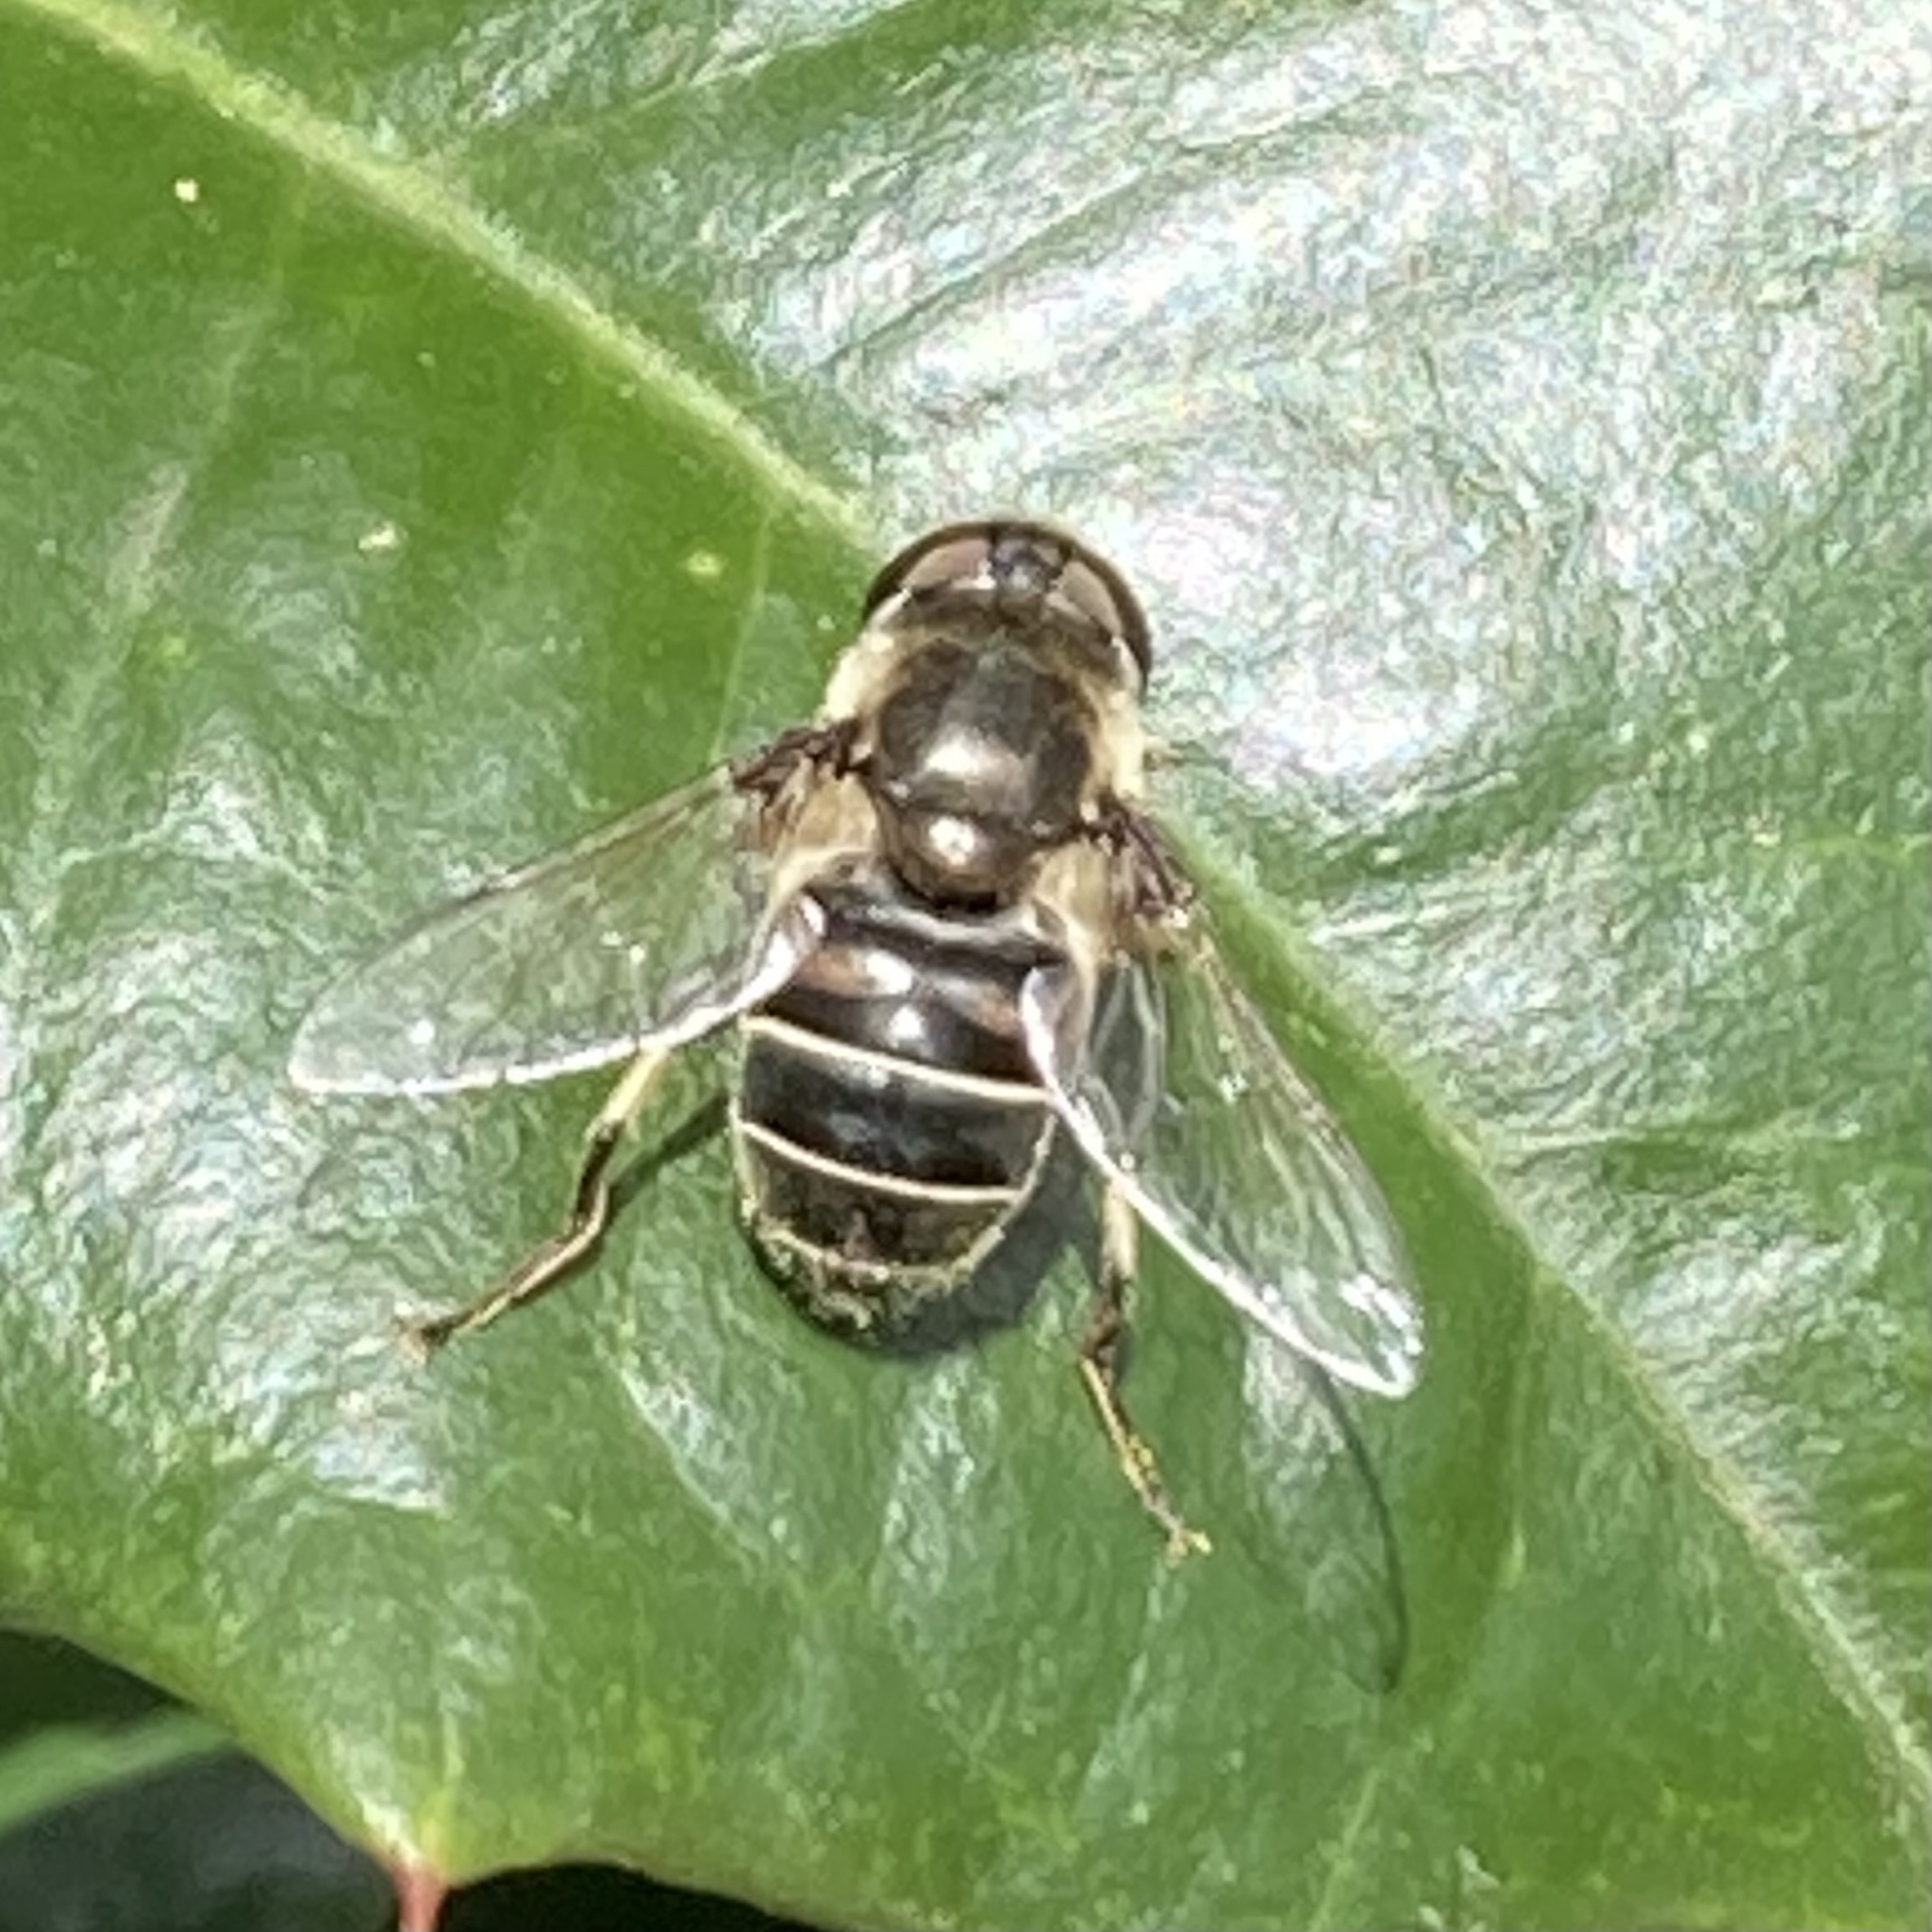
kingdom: Animalia
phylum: Arthropoda
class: Insecta
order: Diptera
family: Syrphidae
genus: Eristalis
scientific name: Eristalis dimidiata
